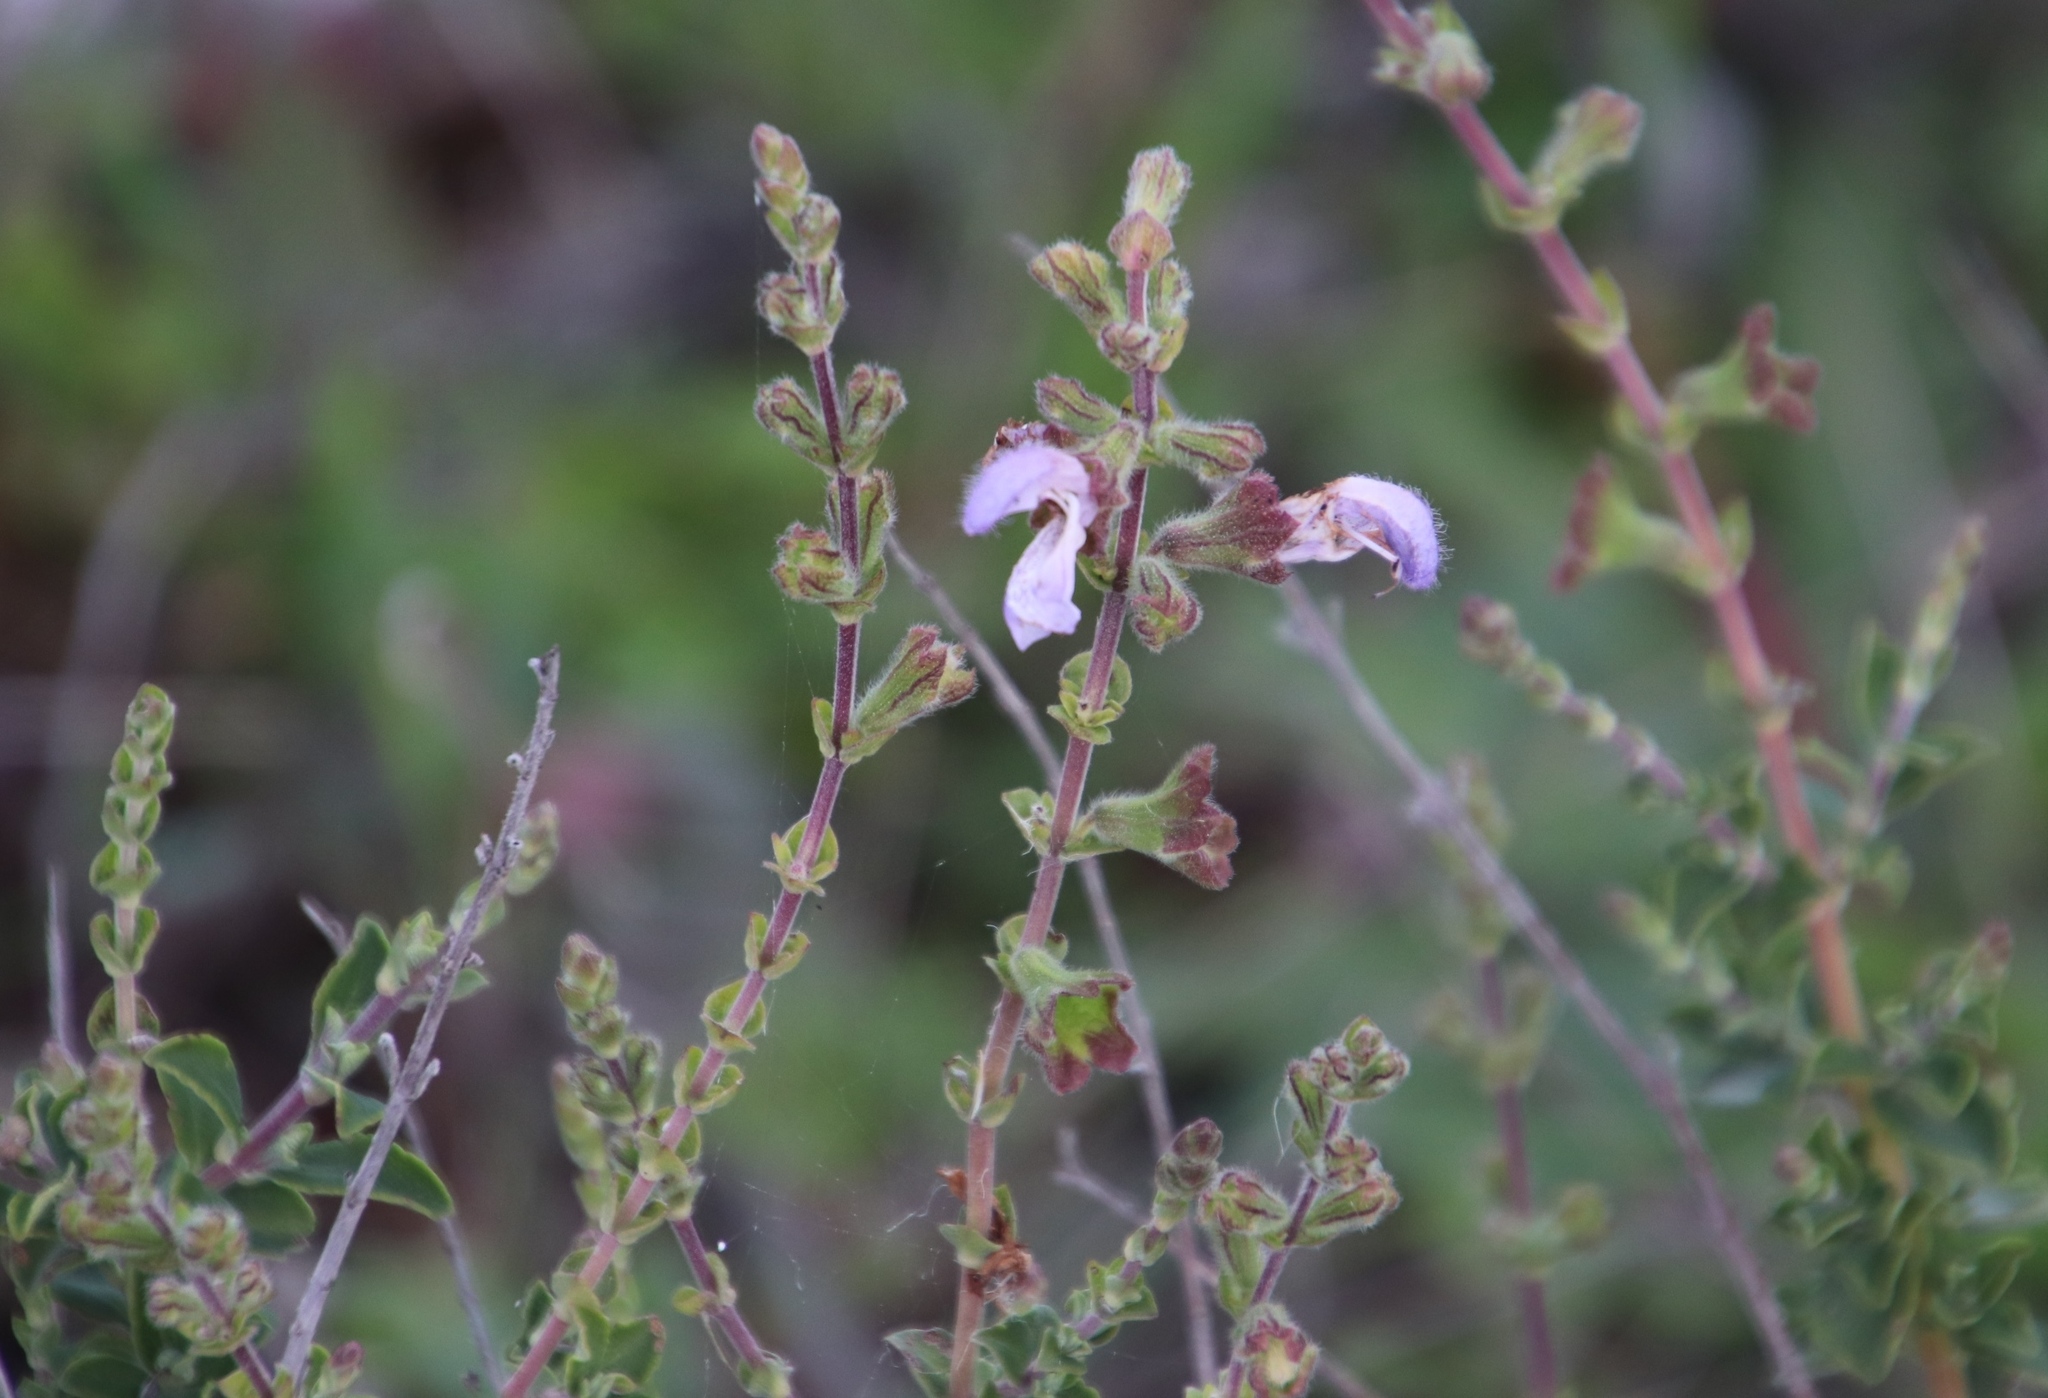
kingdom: Plantae
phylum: Tracheophyta
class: Magnoliopsida
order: Lamiales
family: Lamiaceae
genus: Salvia
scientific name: Salvia africana
